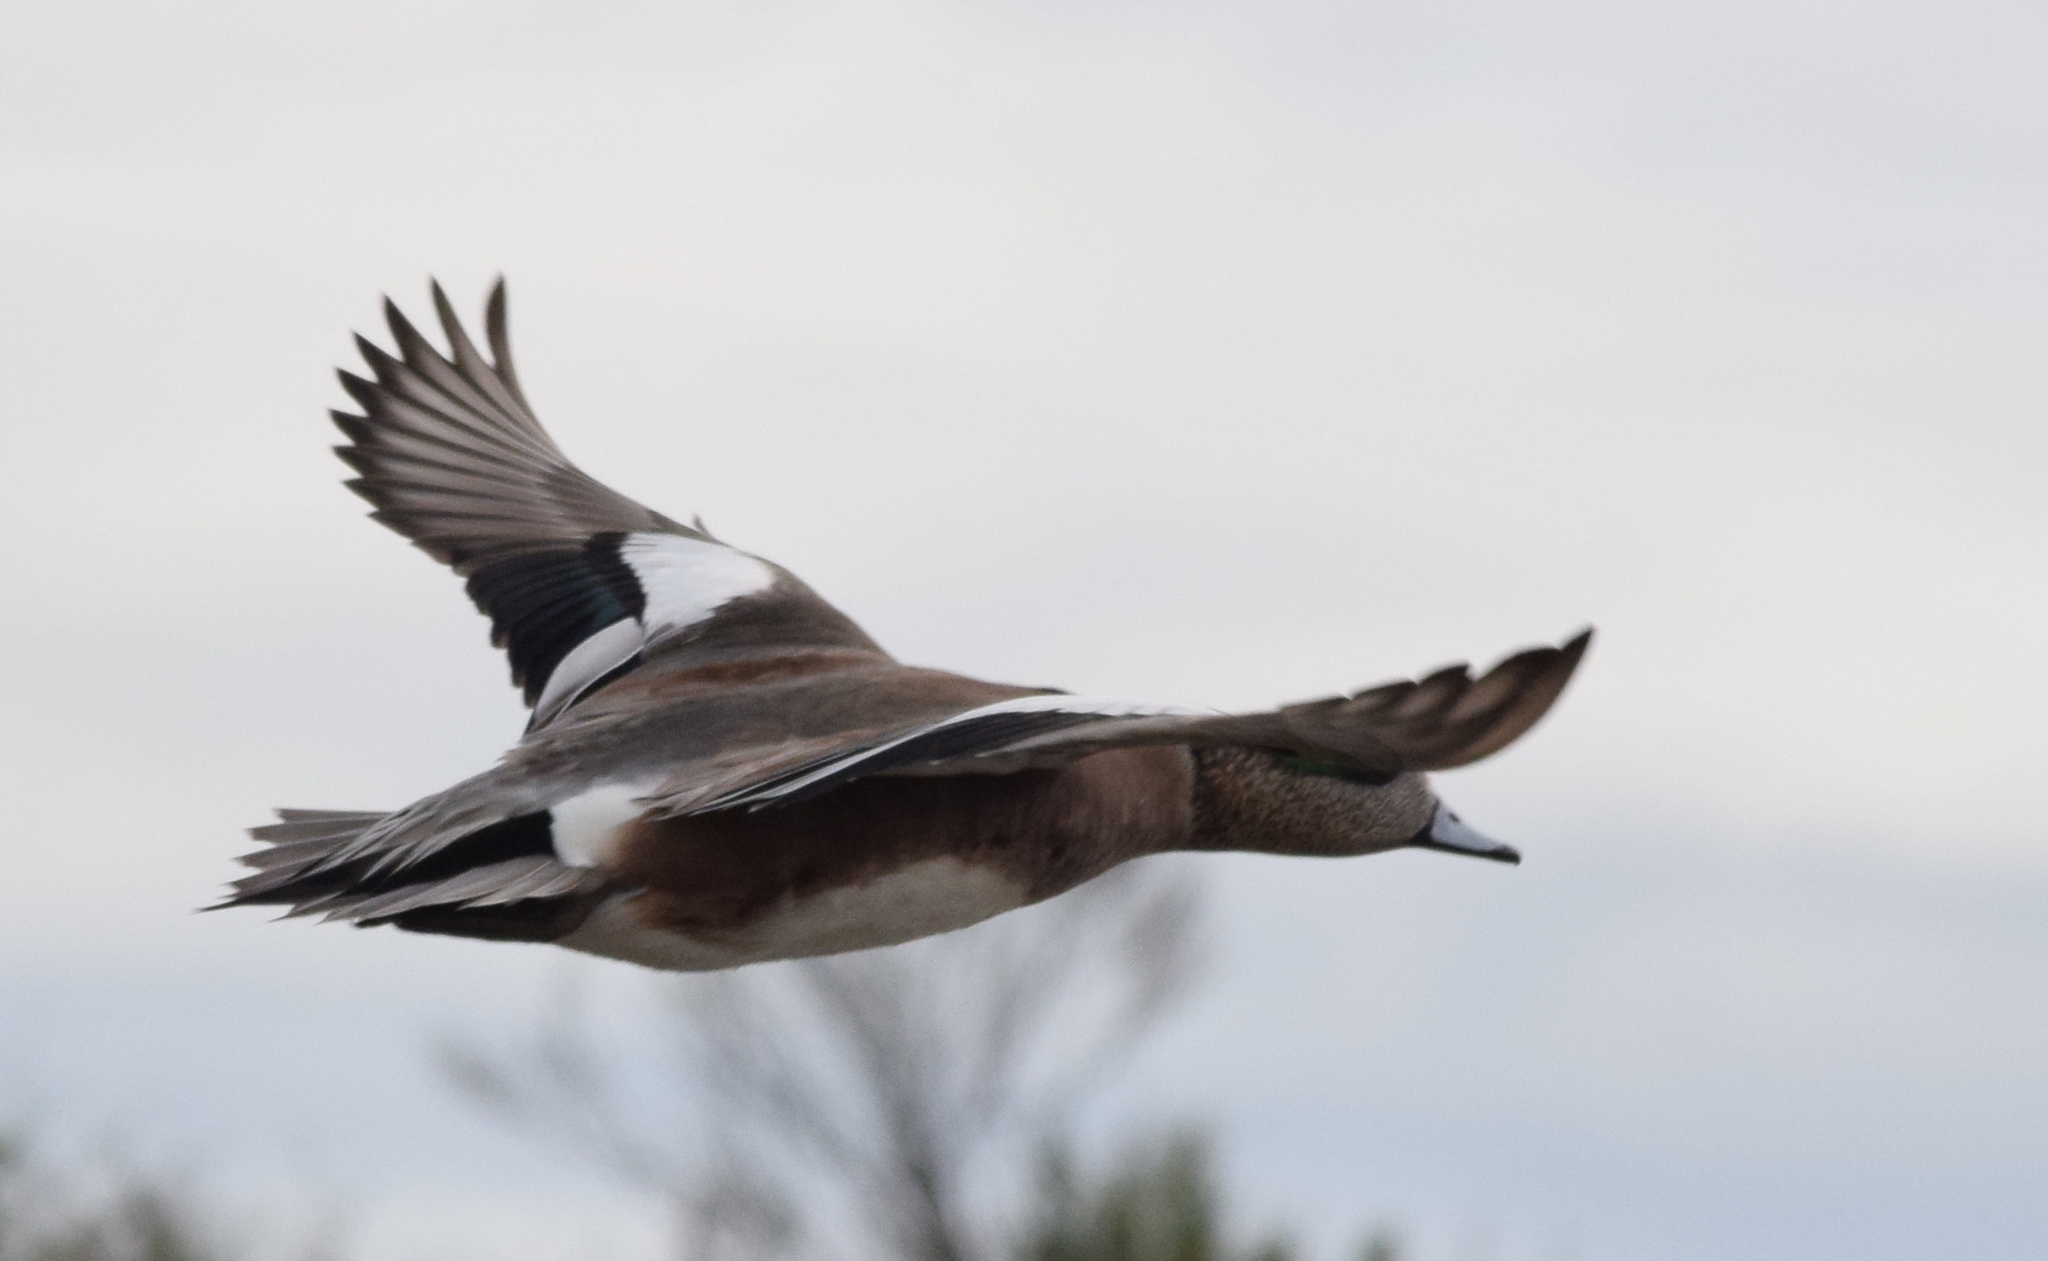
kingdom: Animalia
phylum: Chordata
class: Aves
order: Anseriformes
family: Anatidae
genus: Mareca
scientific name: Mareca americana
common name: American wigeon
